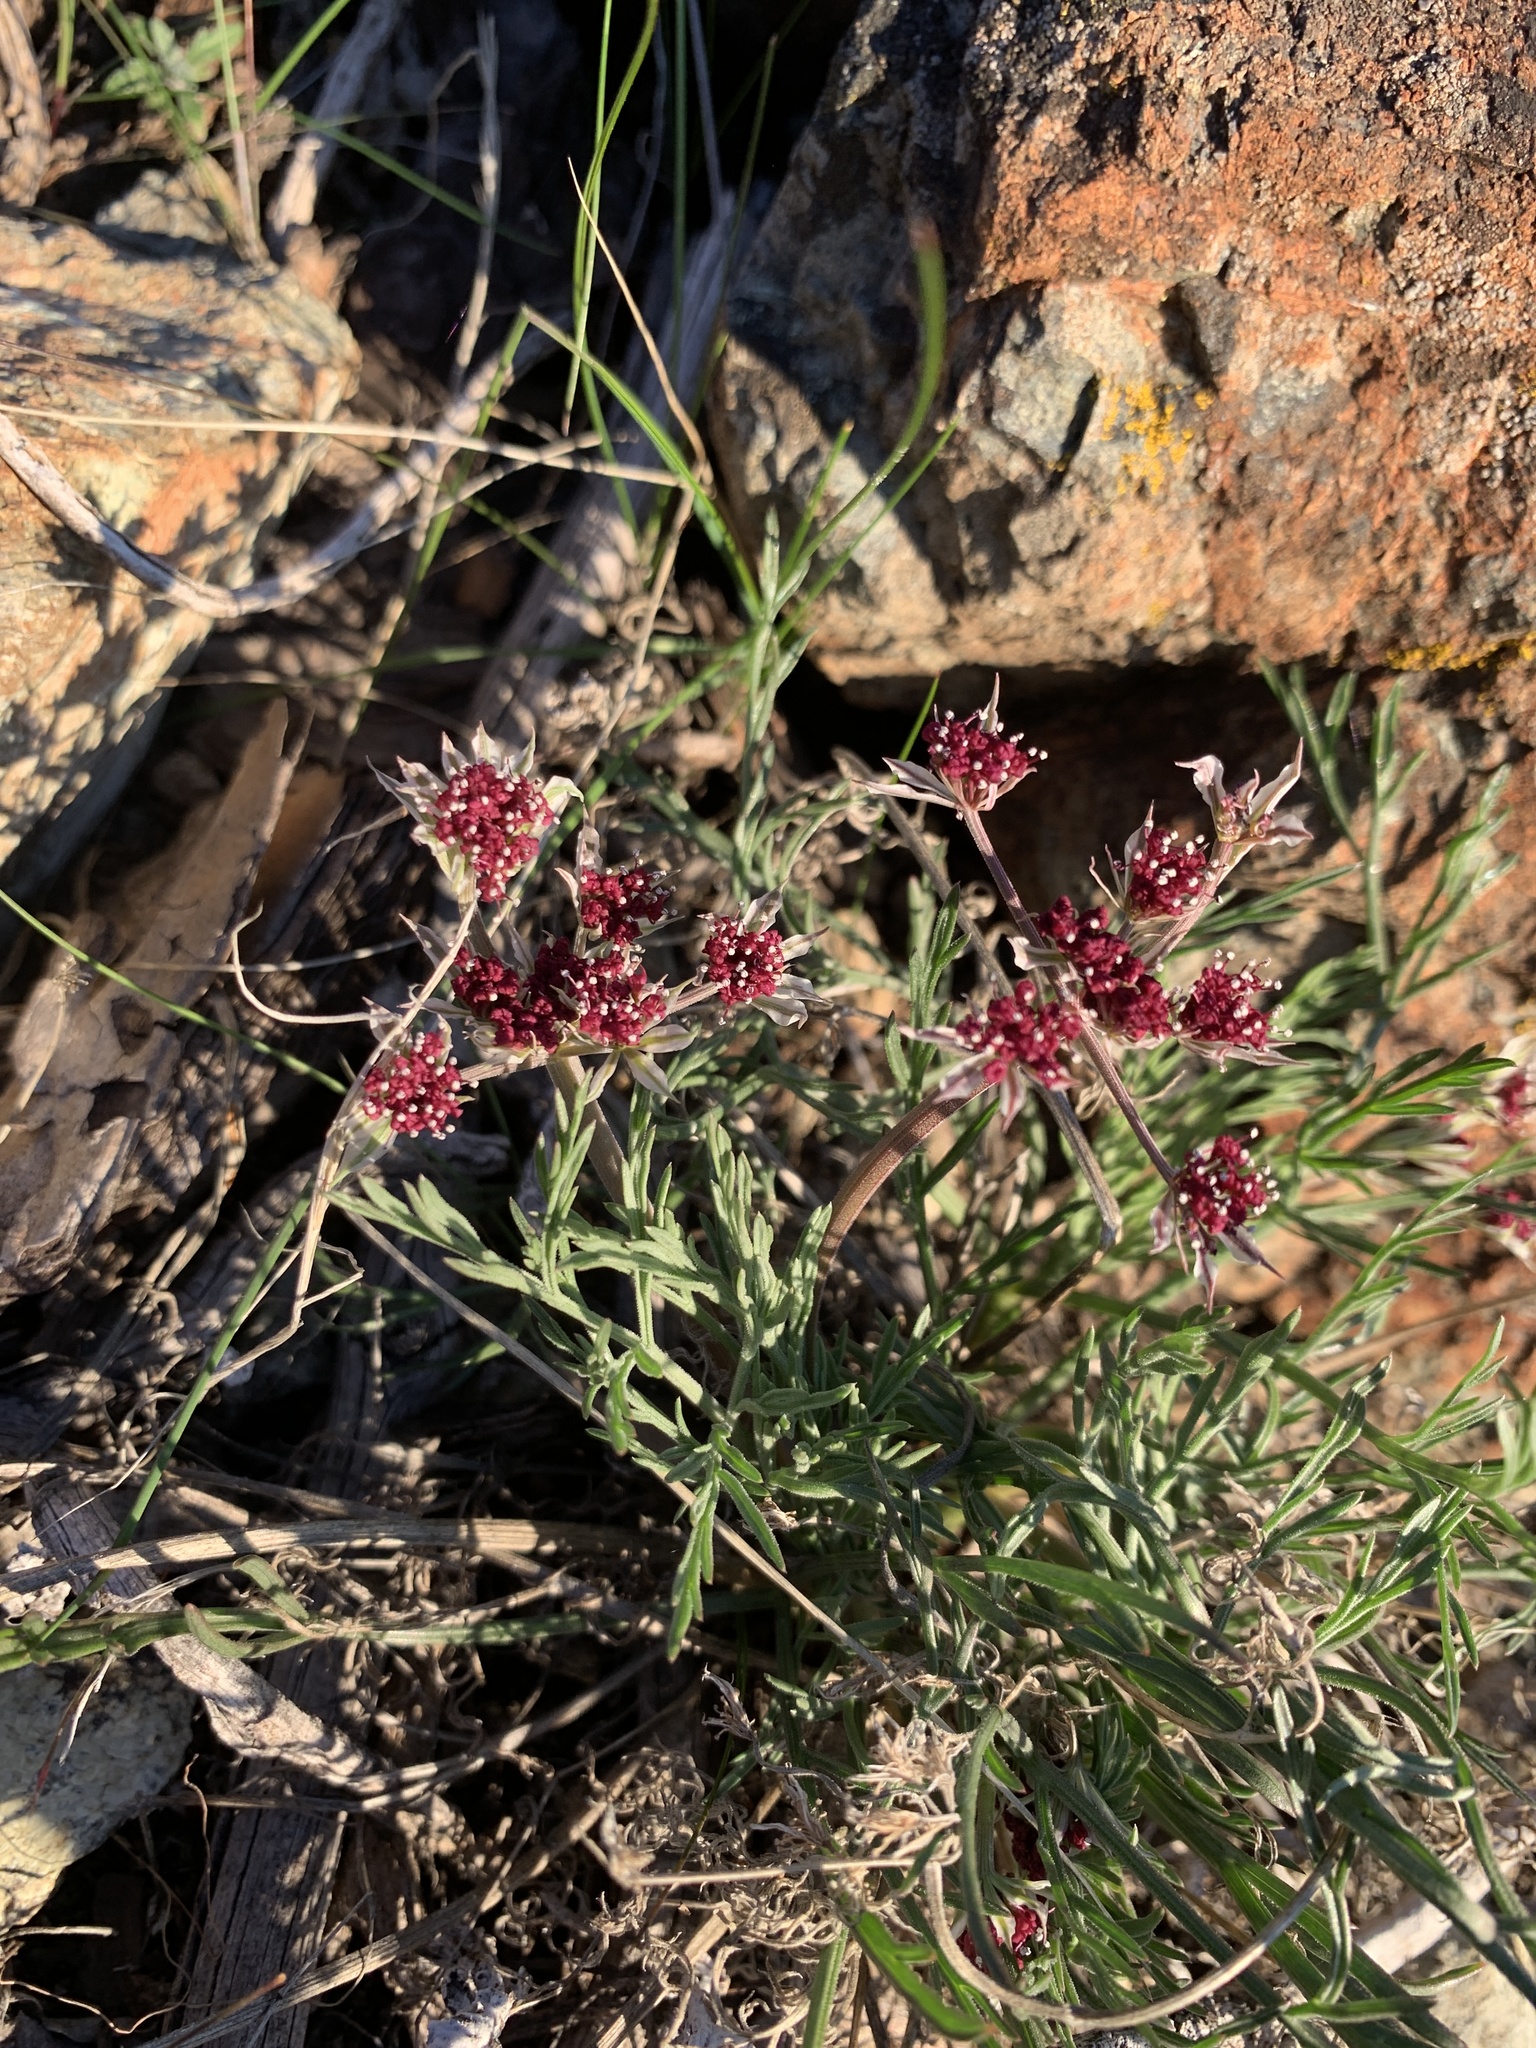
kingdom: Plantae
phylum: Tracheophyta
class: Magnoliopsida
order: Apiales
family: Apiaceae
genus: Lomatium
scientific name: Lomatium hooveri
